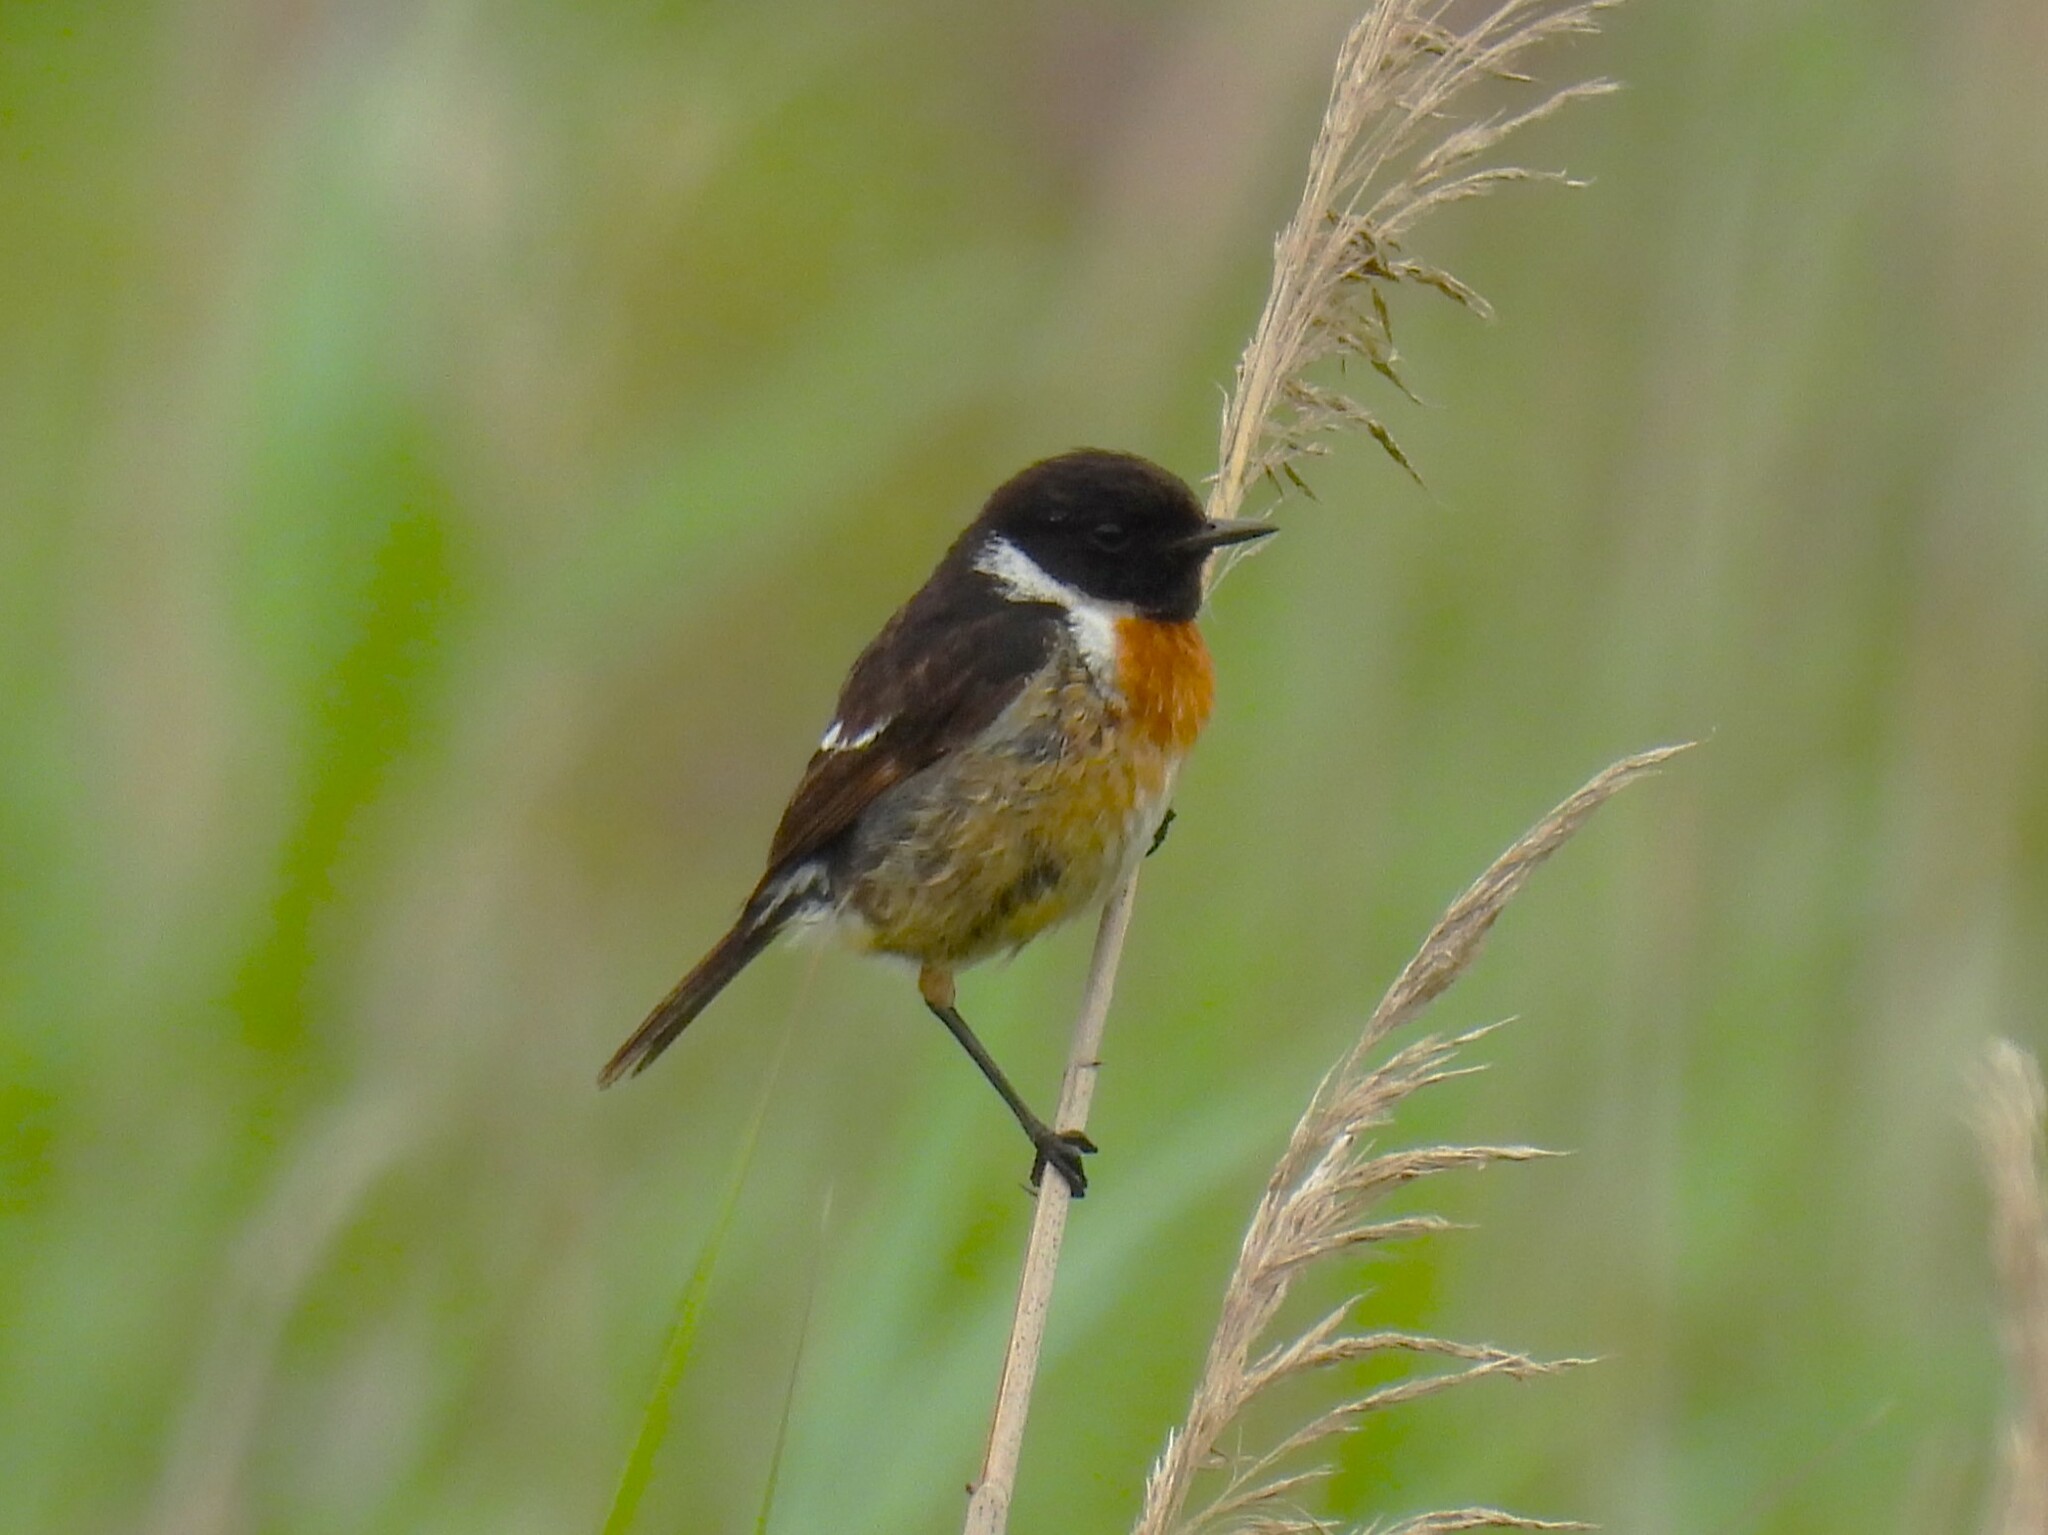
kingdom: Animalia
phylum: Chordata
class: Aves
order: Passeriformes
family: Muscicapidae
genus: Saxicola
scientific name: Saxicola rubicola
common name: European stonechat
